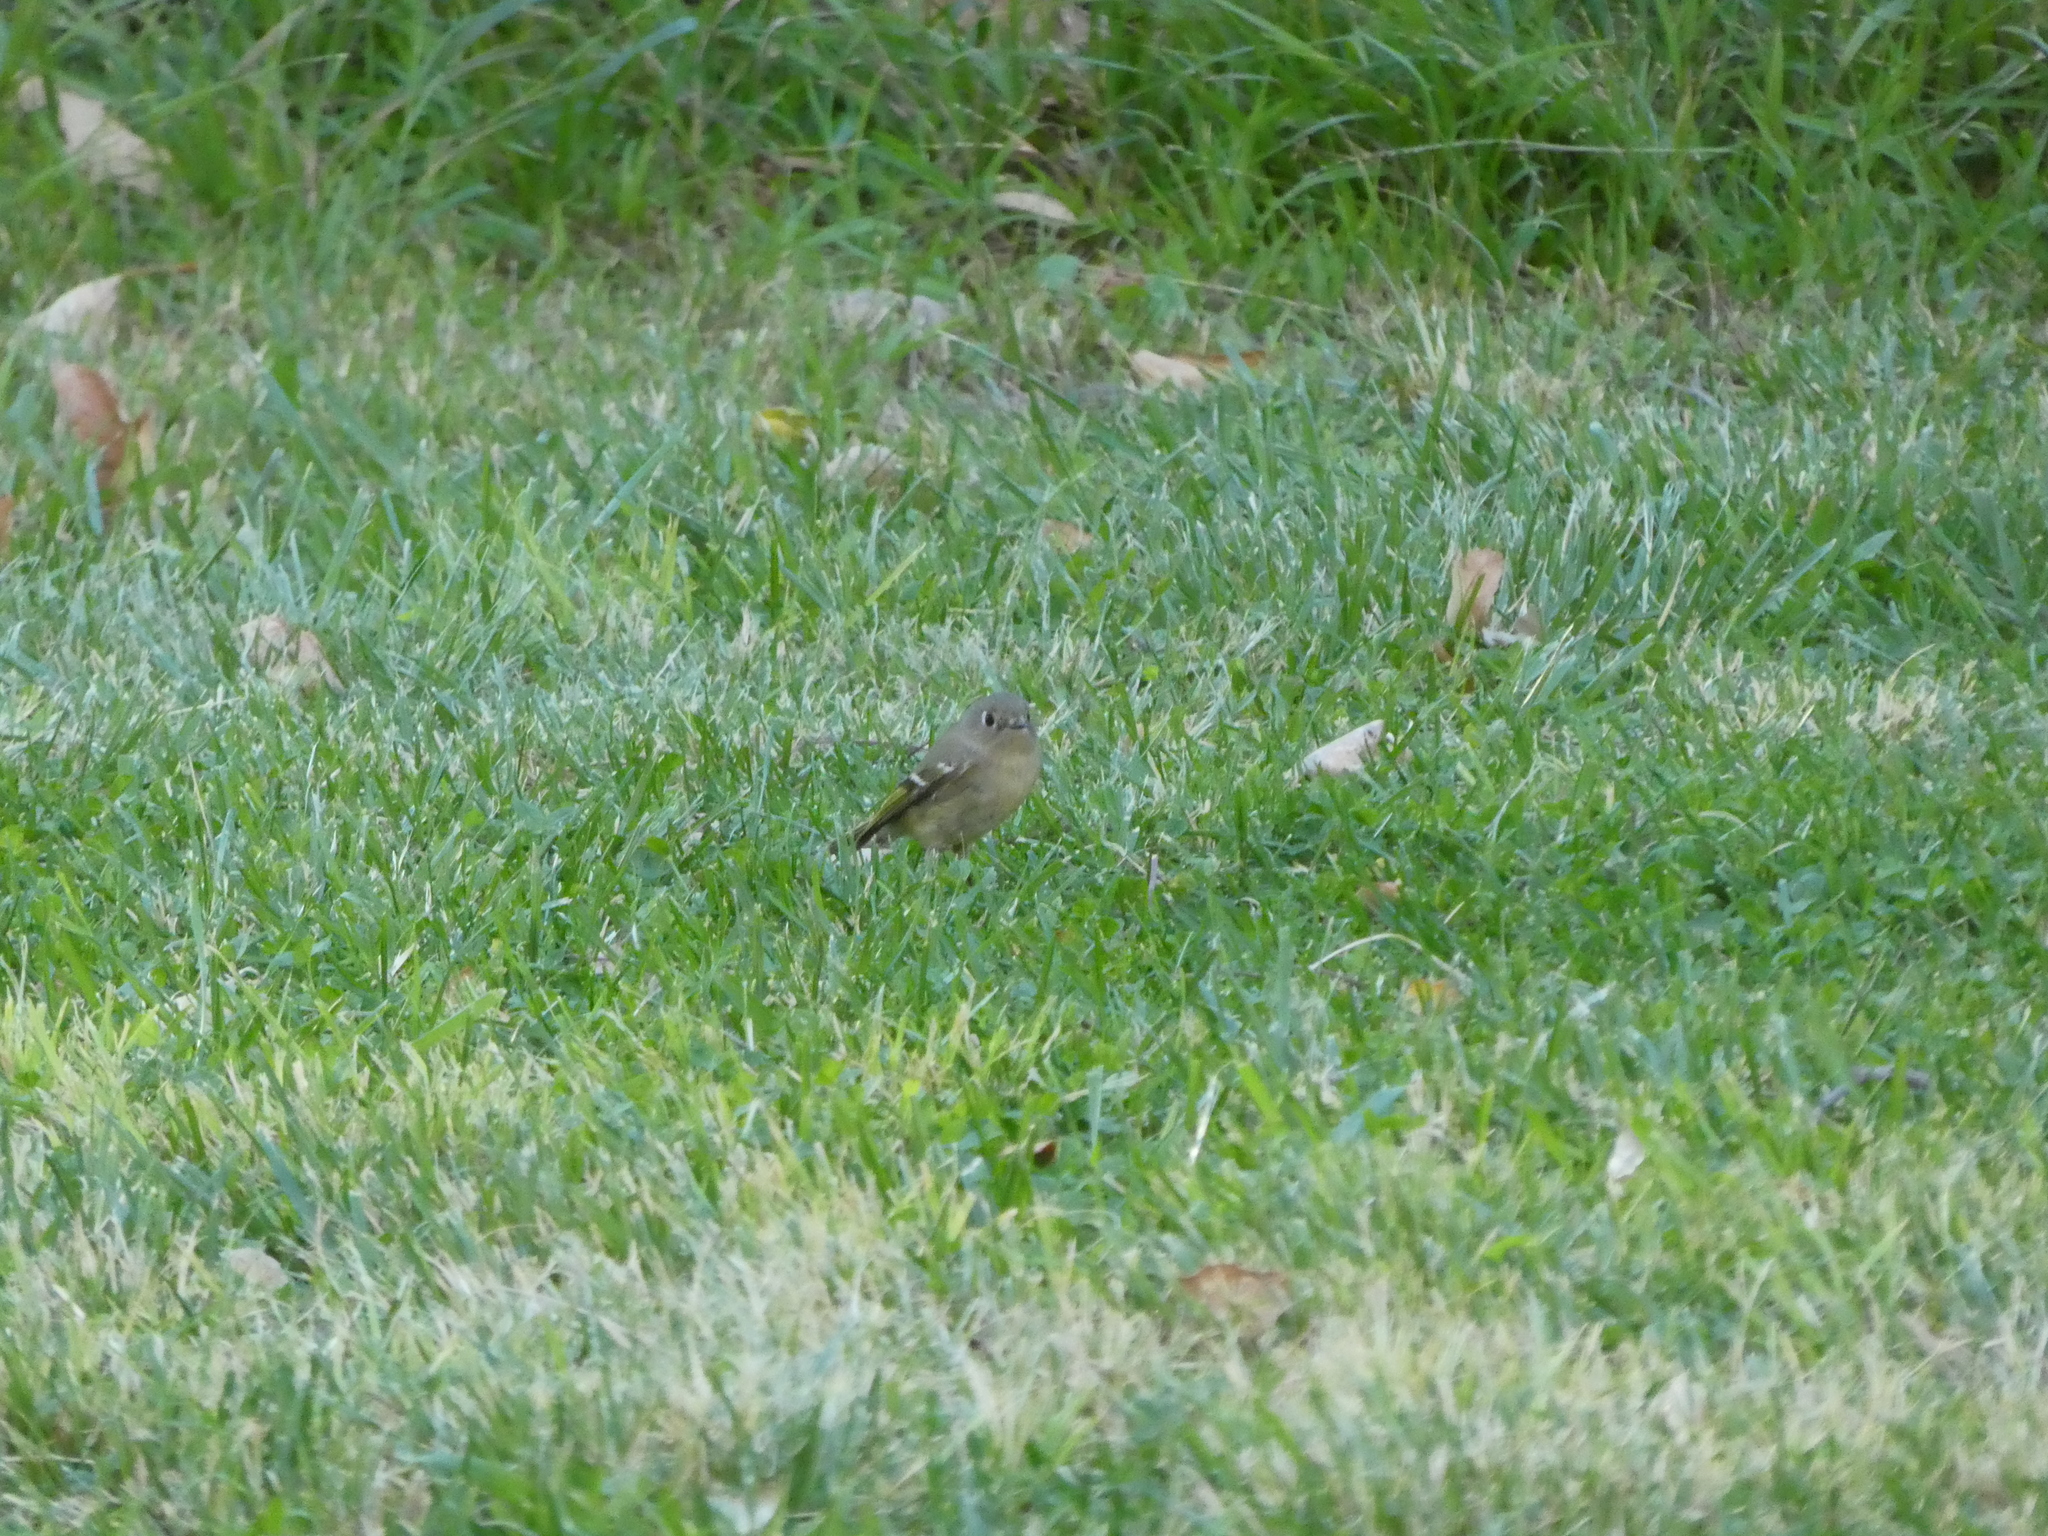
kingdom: Animalia
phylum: Chordata
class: Aves
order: Passeriformes
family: Regulidae
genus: Regulus
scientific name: Regulus calendula
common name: Ruby-crowned kinglet
